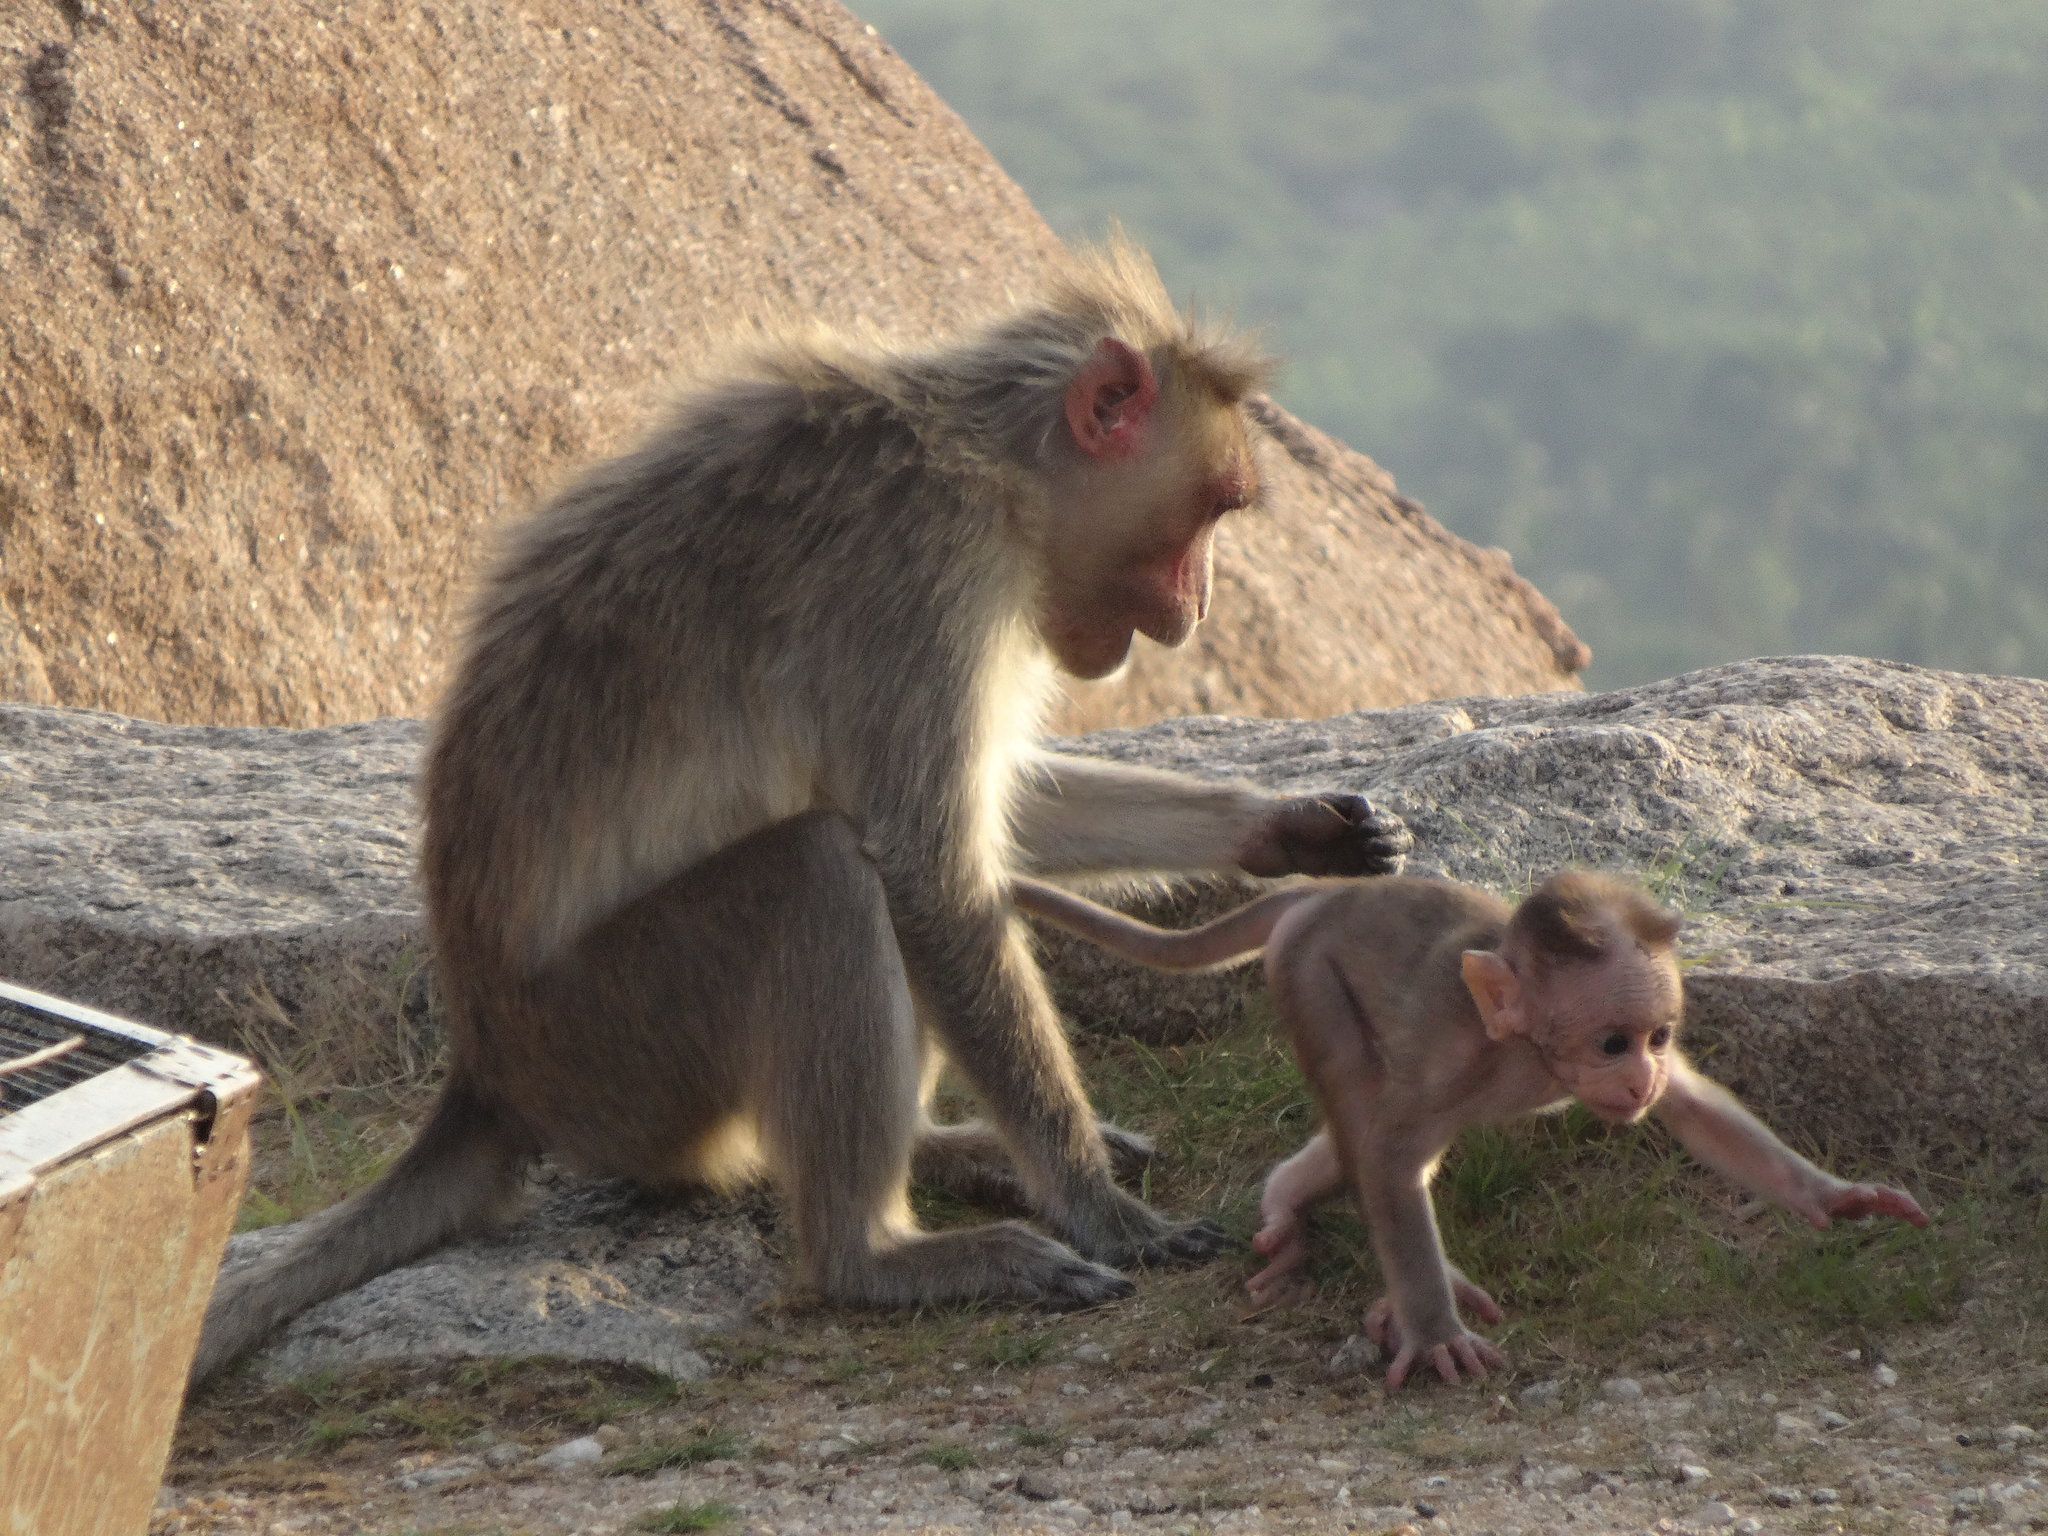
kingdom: Animalia
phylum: Chordata
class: Mammalia
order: Primates
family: Cercopithecidae
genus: Macaca
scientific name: Macaca radiata
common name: Bonnet macaque
